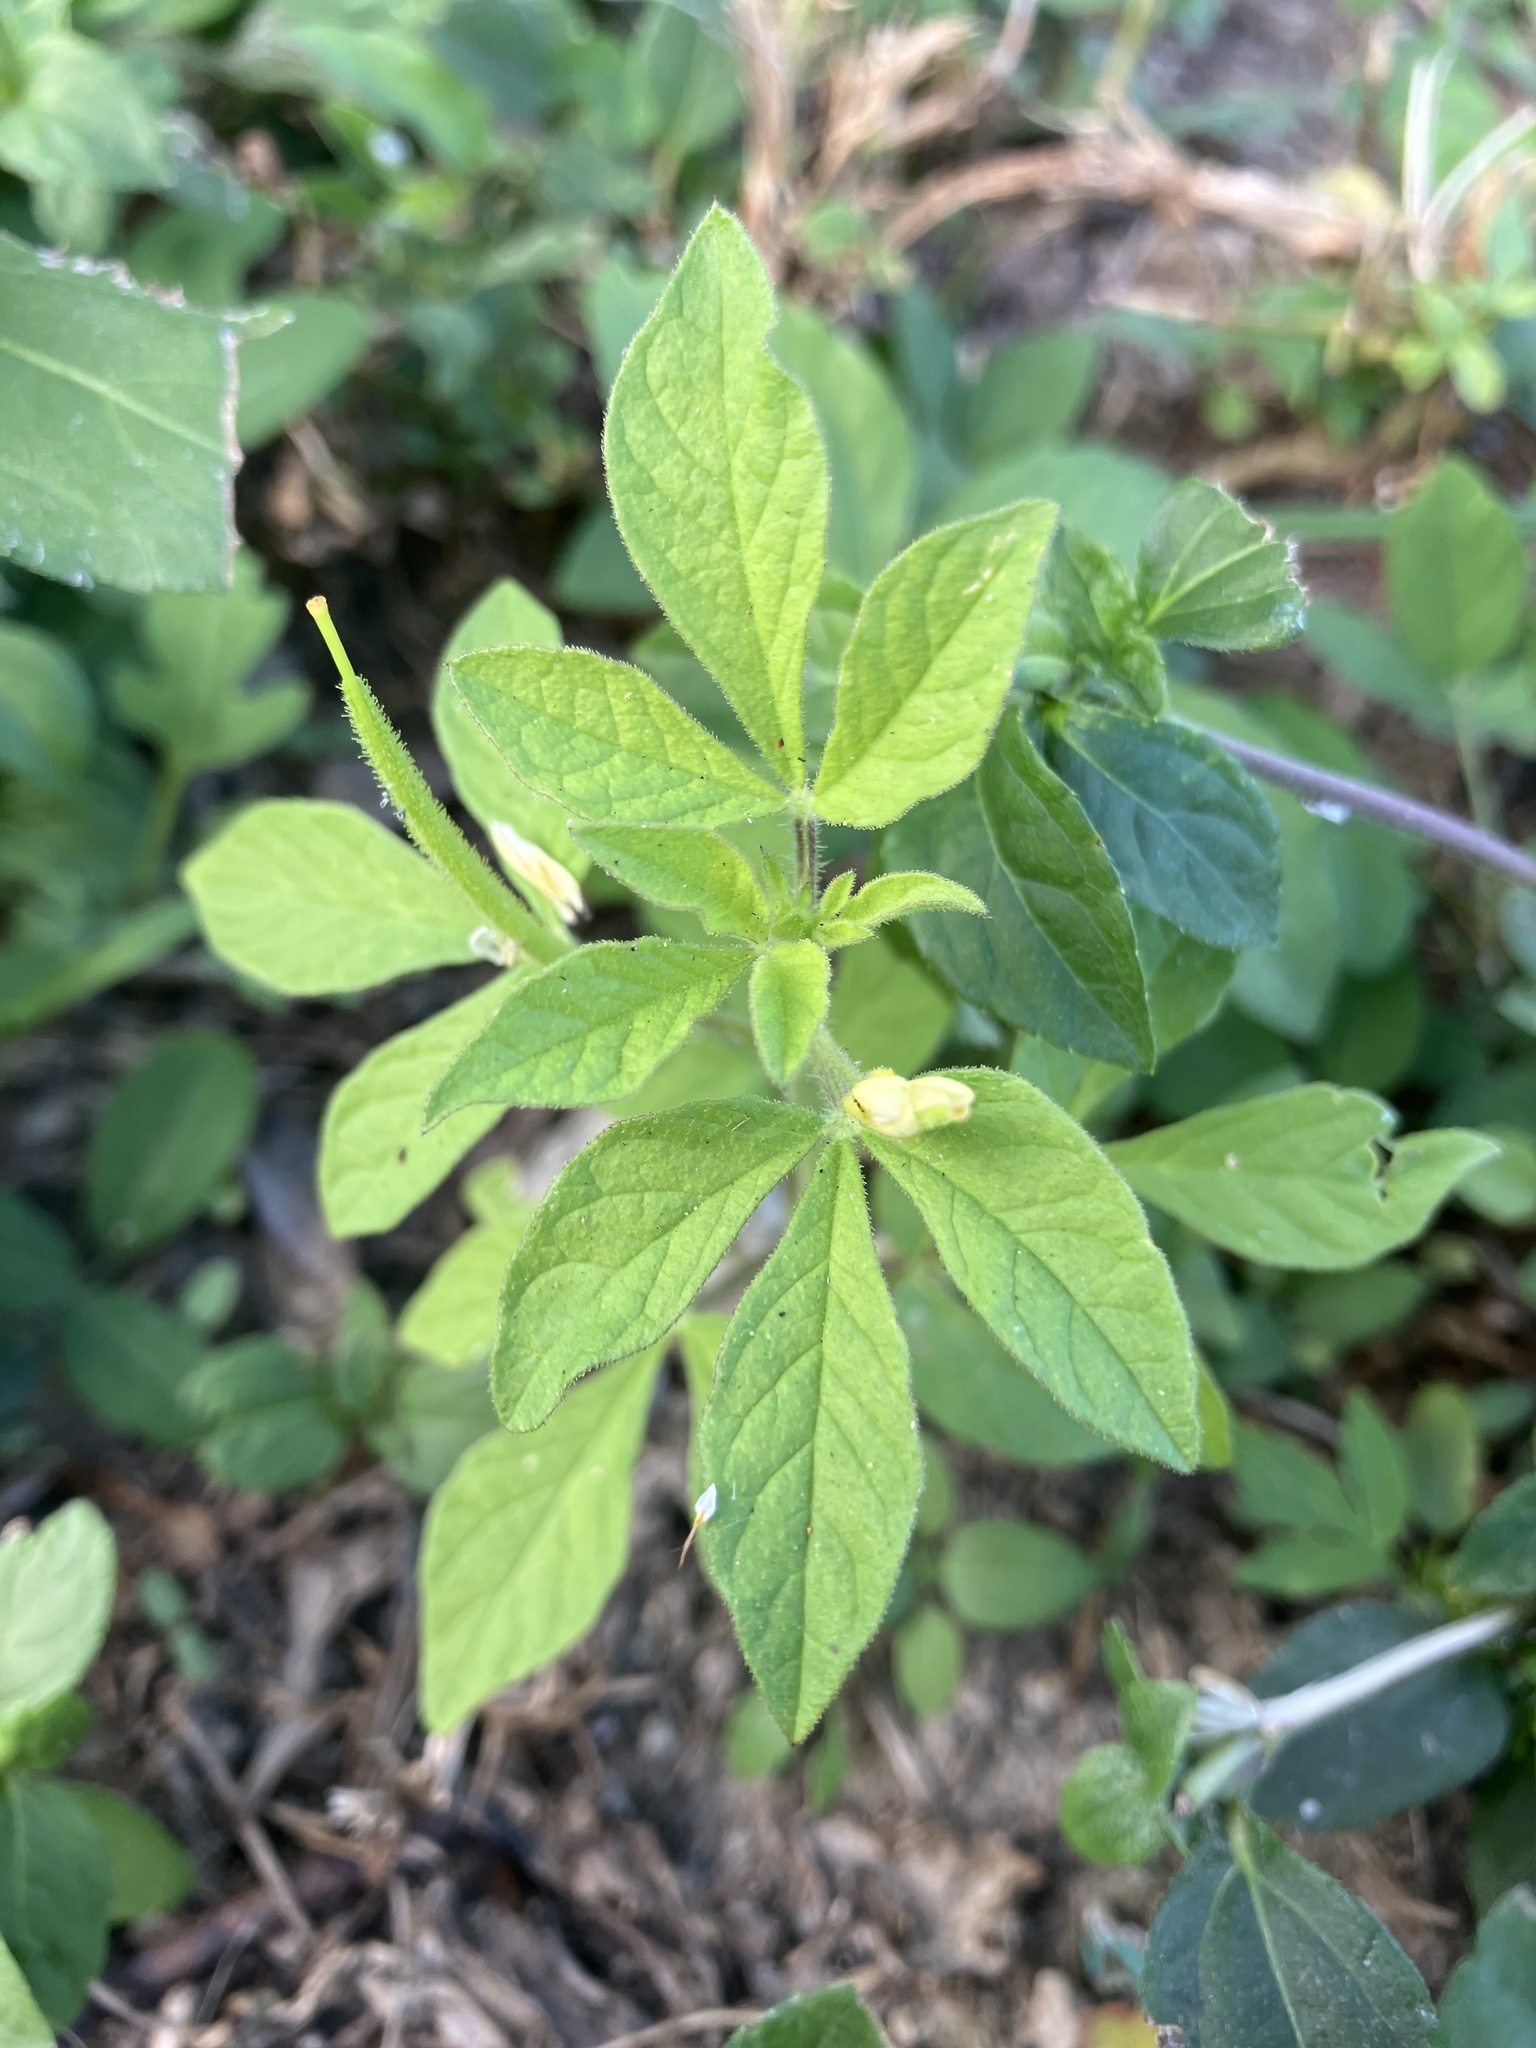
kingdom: Plantae
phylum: Tracheophyta
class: Magnoliopsida
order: Brassicales
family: Cleomaceae
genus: Arivela
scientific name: Arivela viscosa
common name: Asian spiderflower
